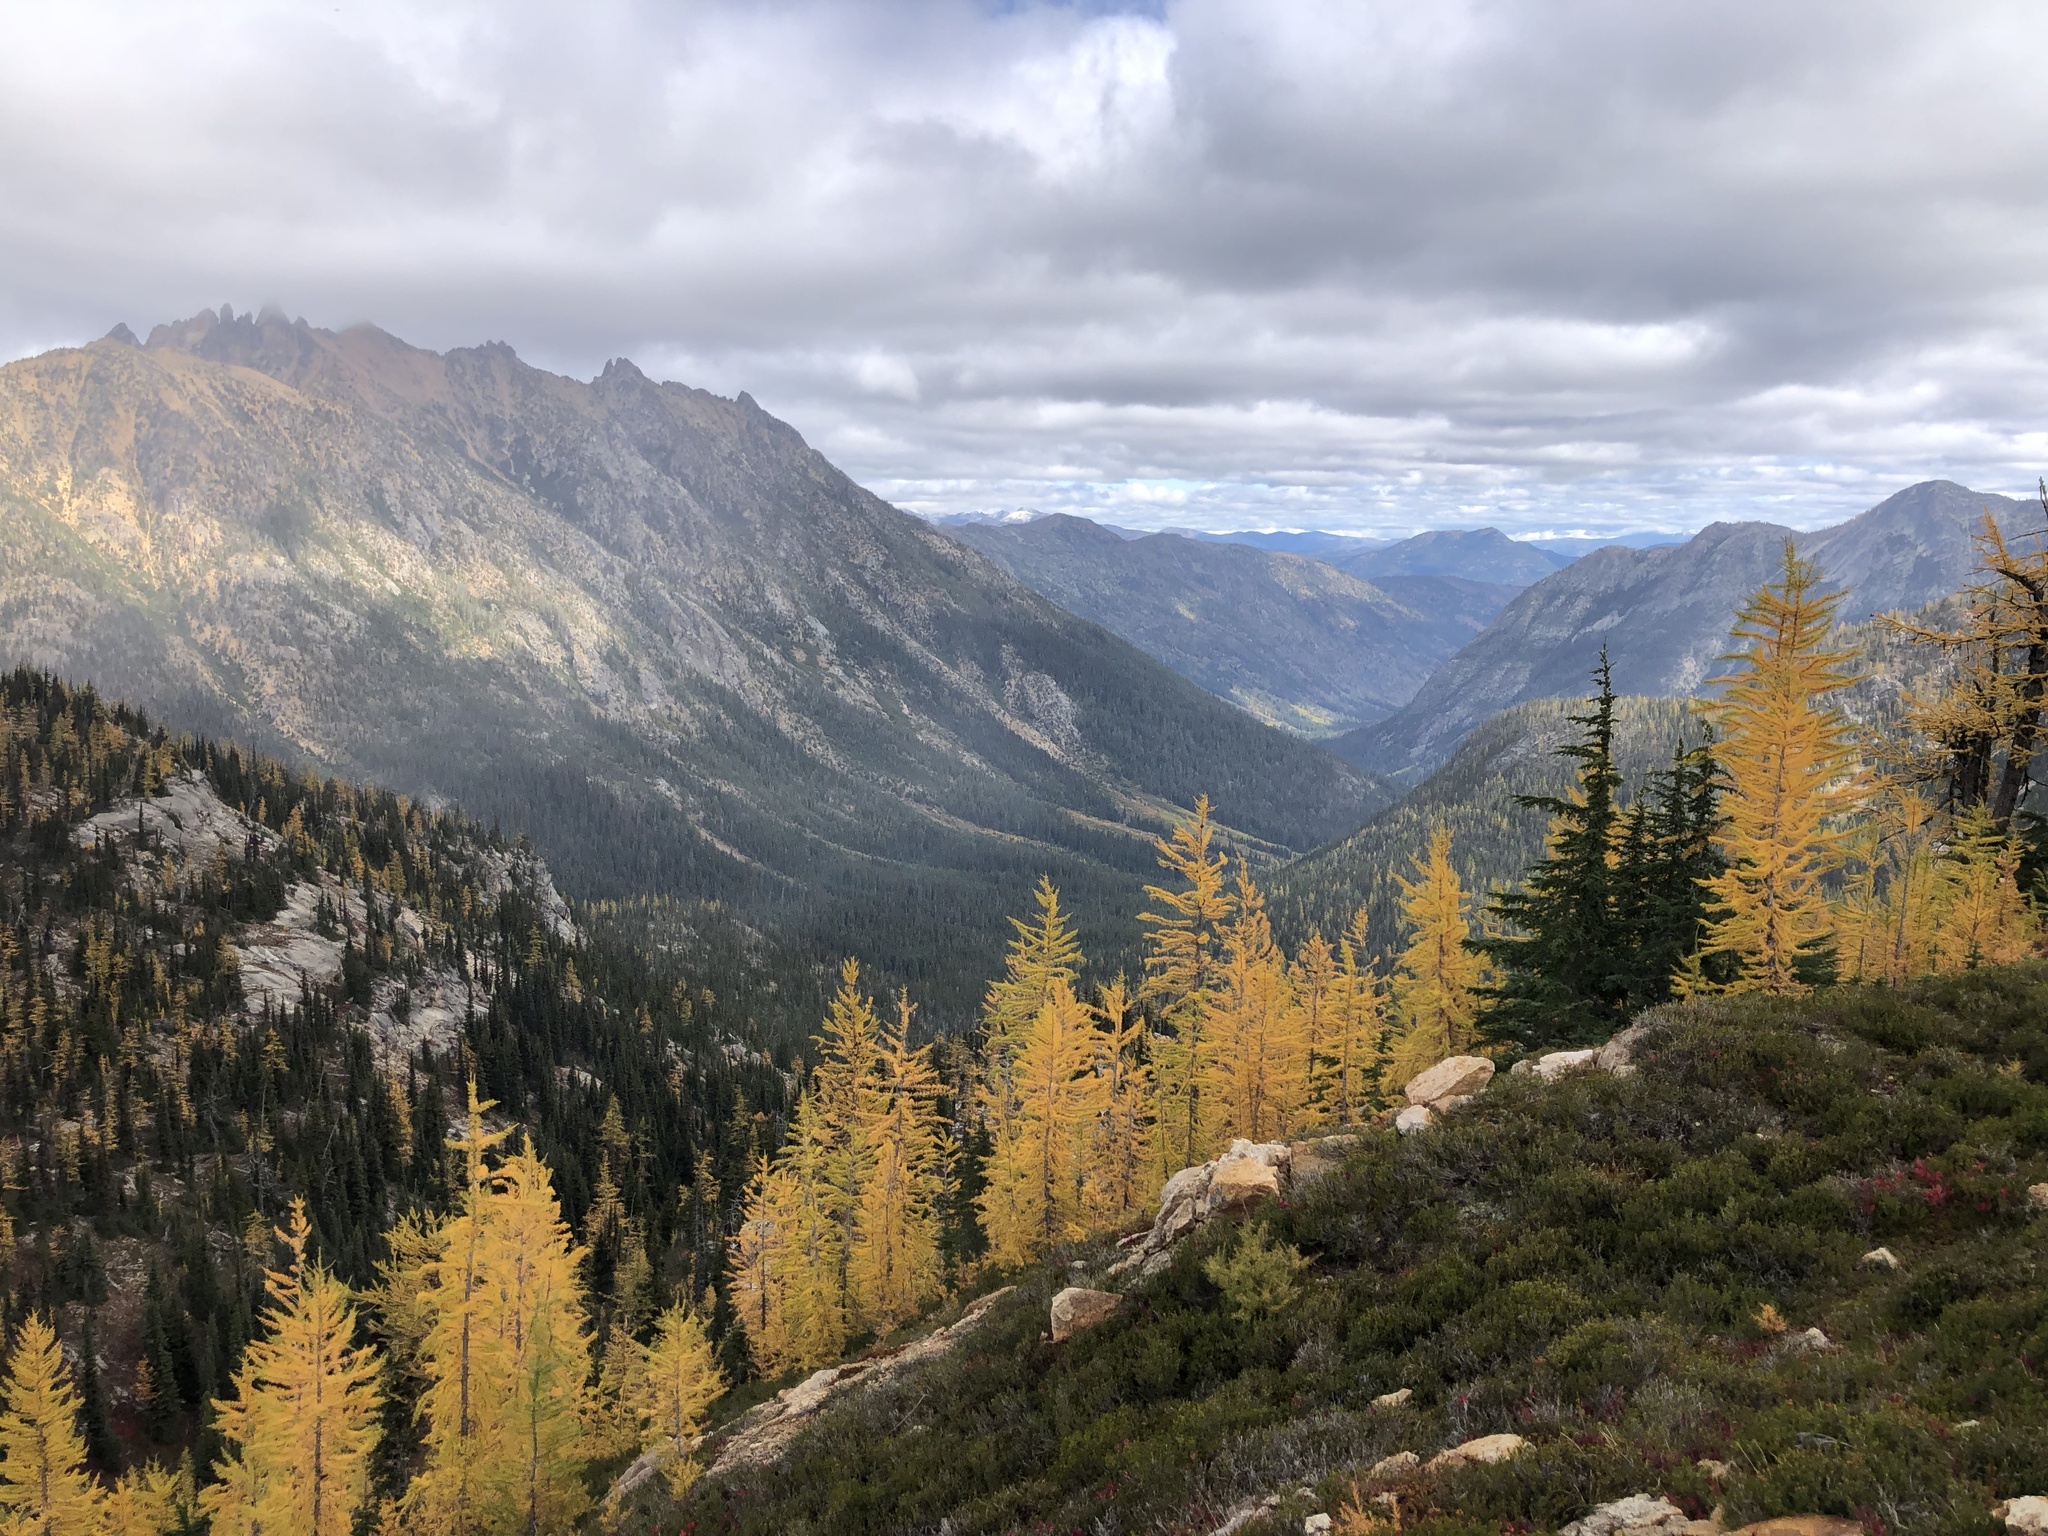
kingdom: Plantae
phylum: Tracheophyta
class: Pinopsida
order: Pinales
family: Pinaceae
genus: Tsuga
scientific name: Tsuga mertensiana
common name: Mountain hemlock
